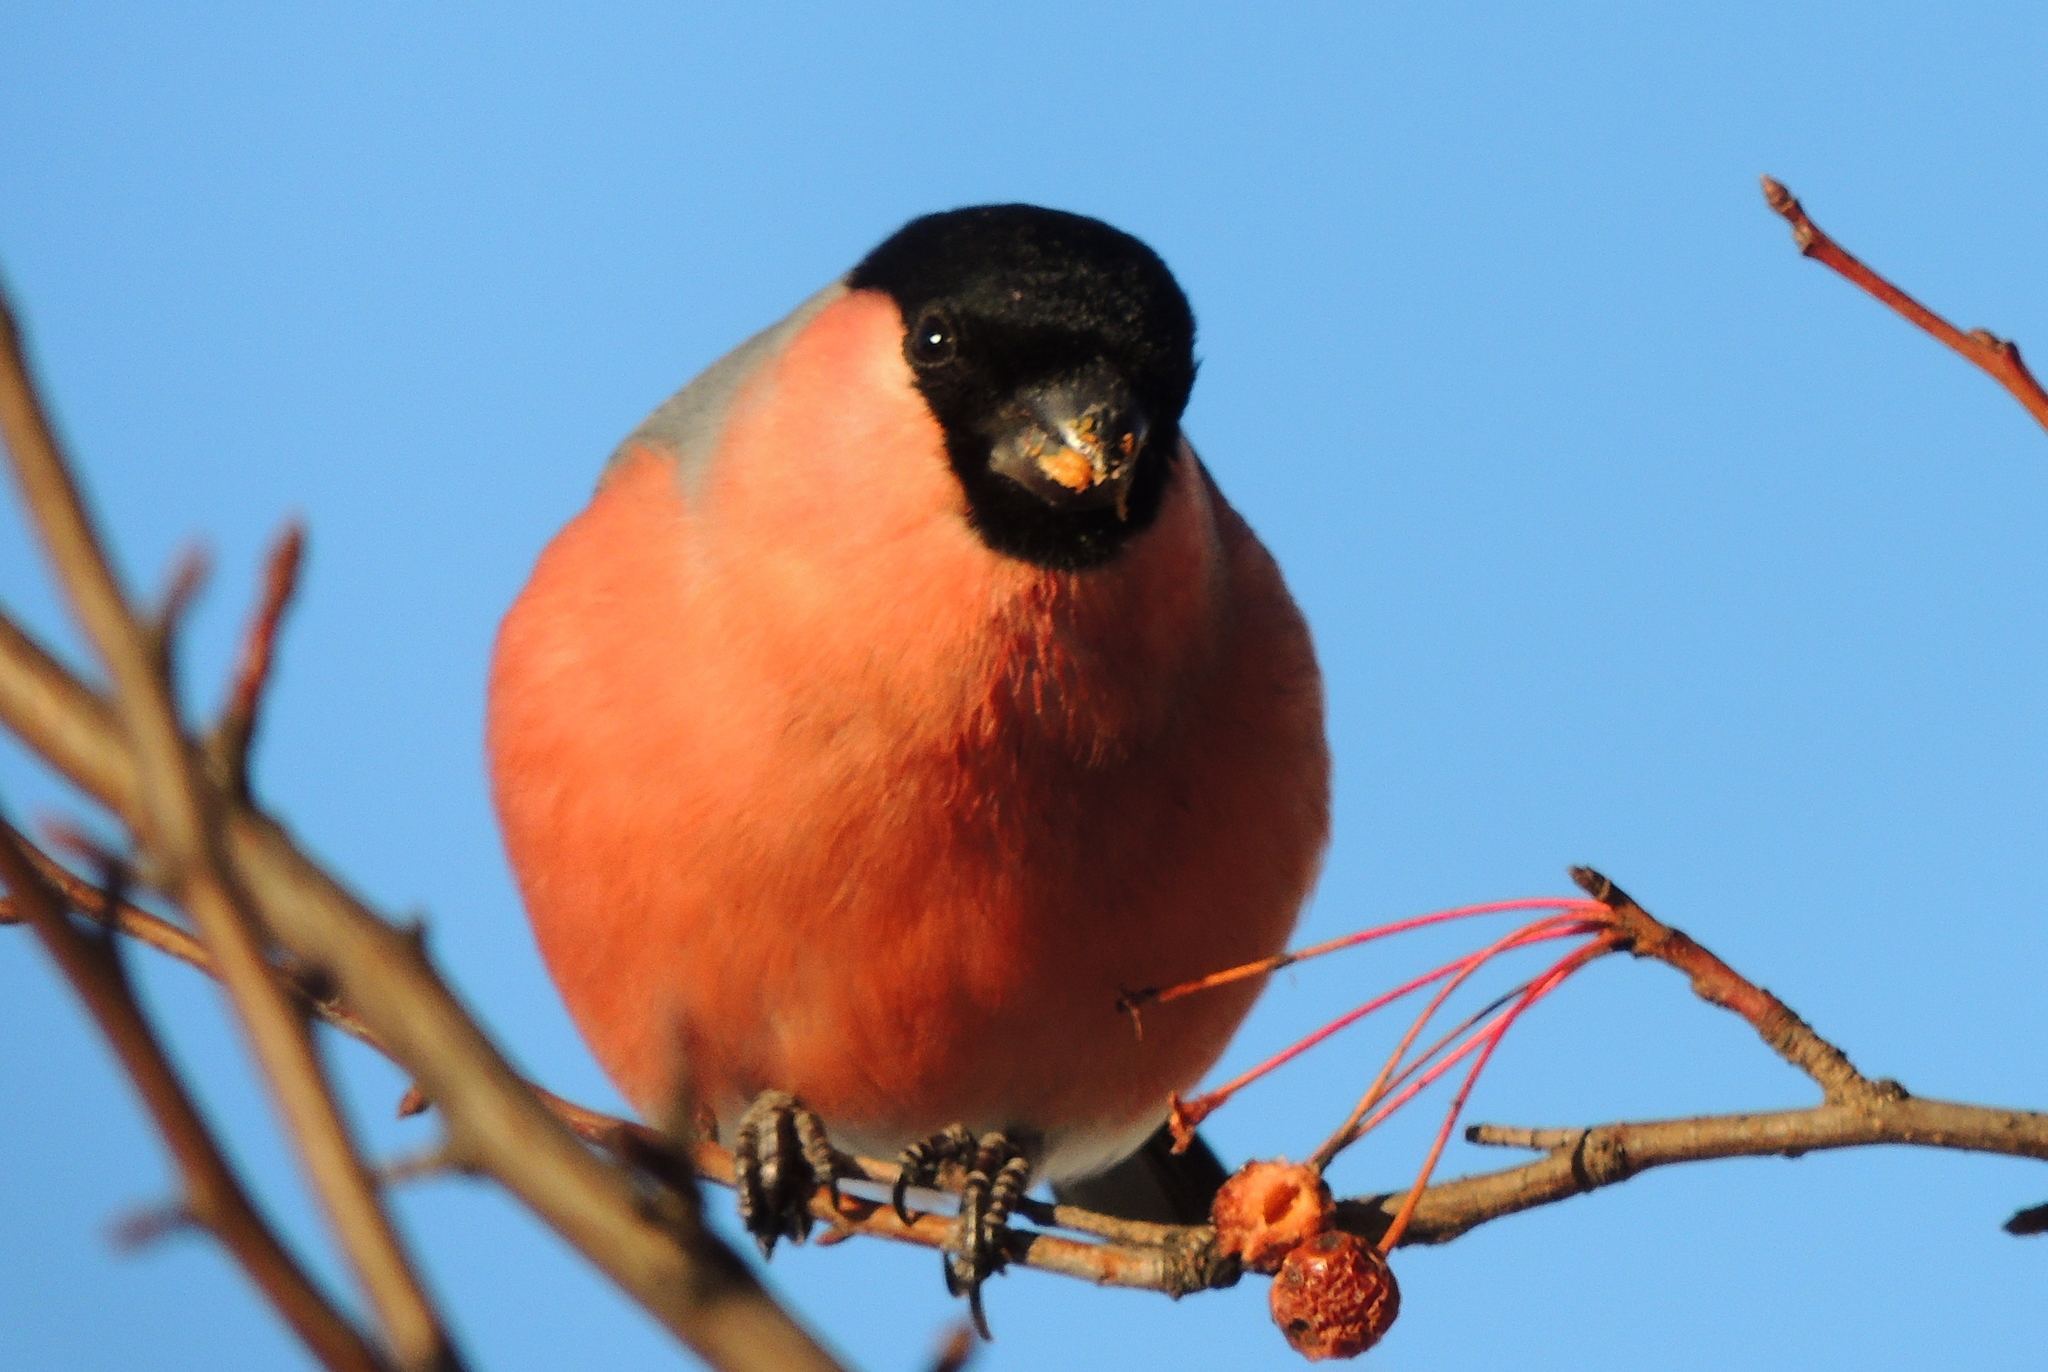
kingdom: Animalia
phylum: Chordata
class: Aves
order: Passeriformes
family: Fringillidae
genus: Pyrrhula
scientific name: Pyrrhula pyrrhula
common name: Eurasian bullfinch
